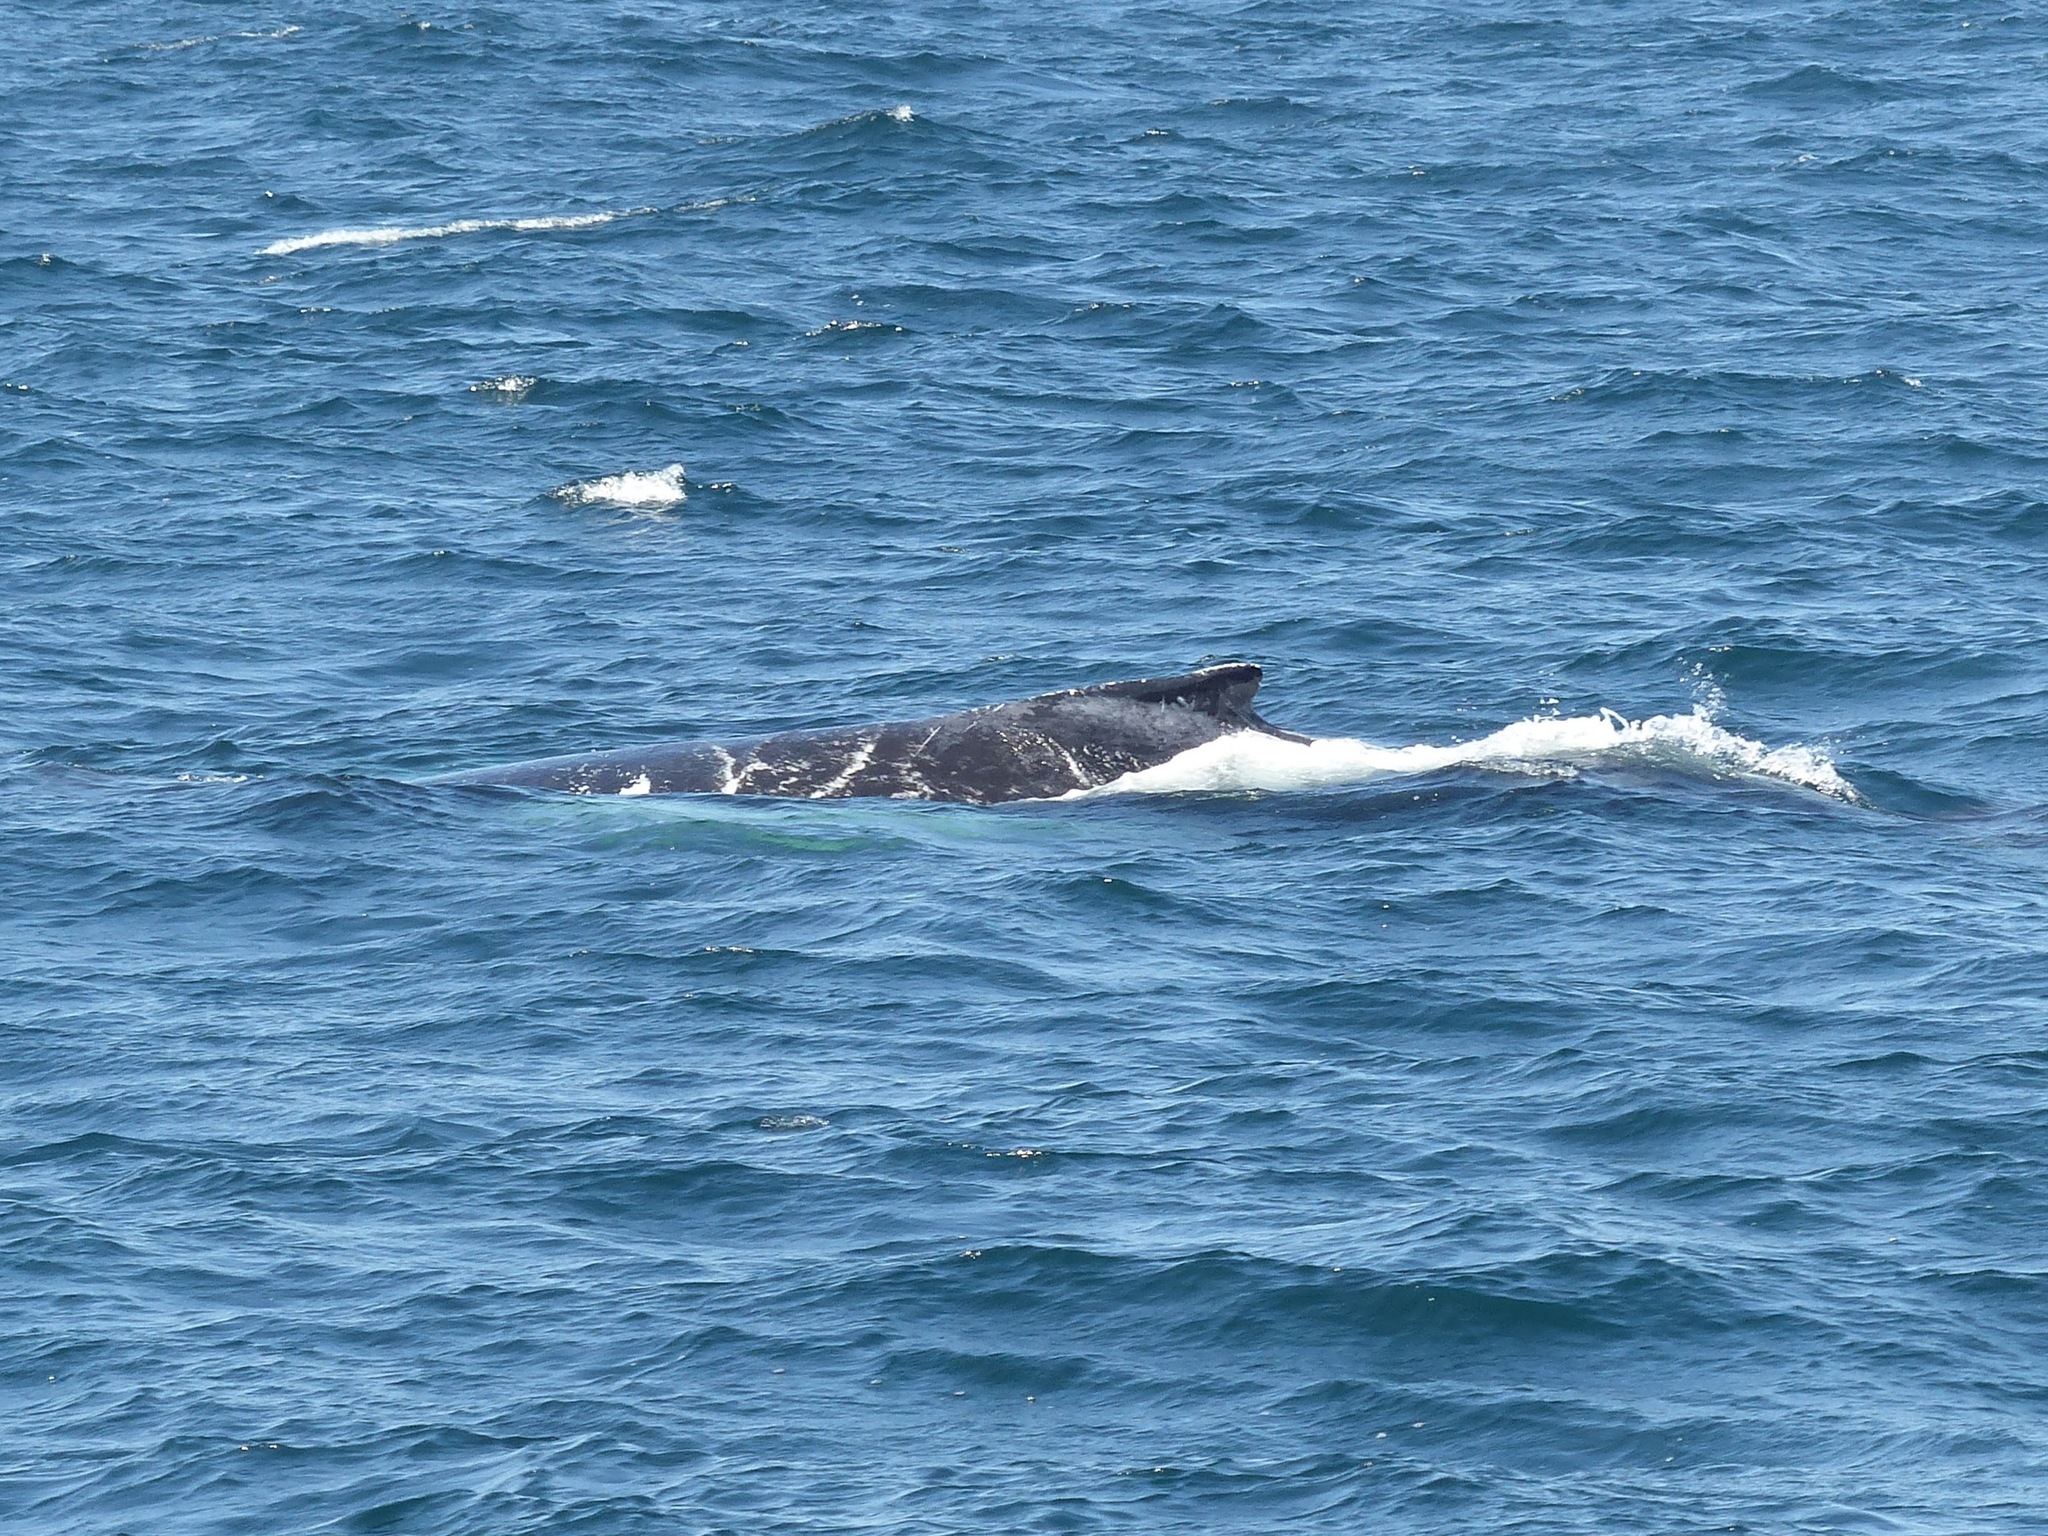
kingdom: Animalia
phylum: Chordata
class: Mammalia
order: Cetacea
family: Balaenopteridae
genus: Megaptera
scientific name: Megaptera novaeangliae
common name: Humpback whale
